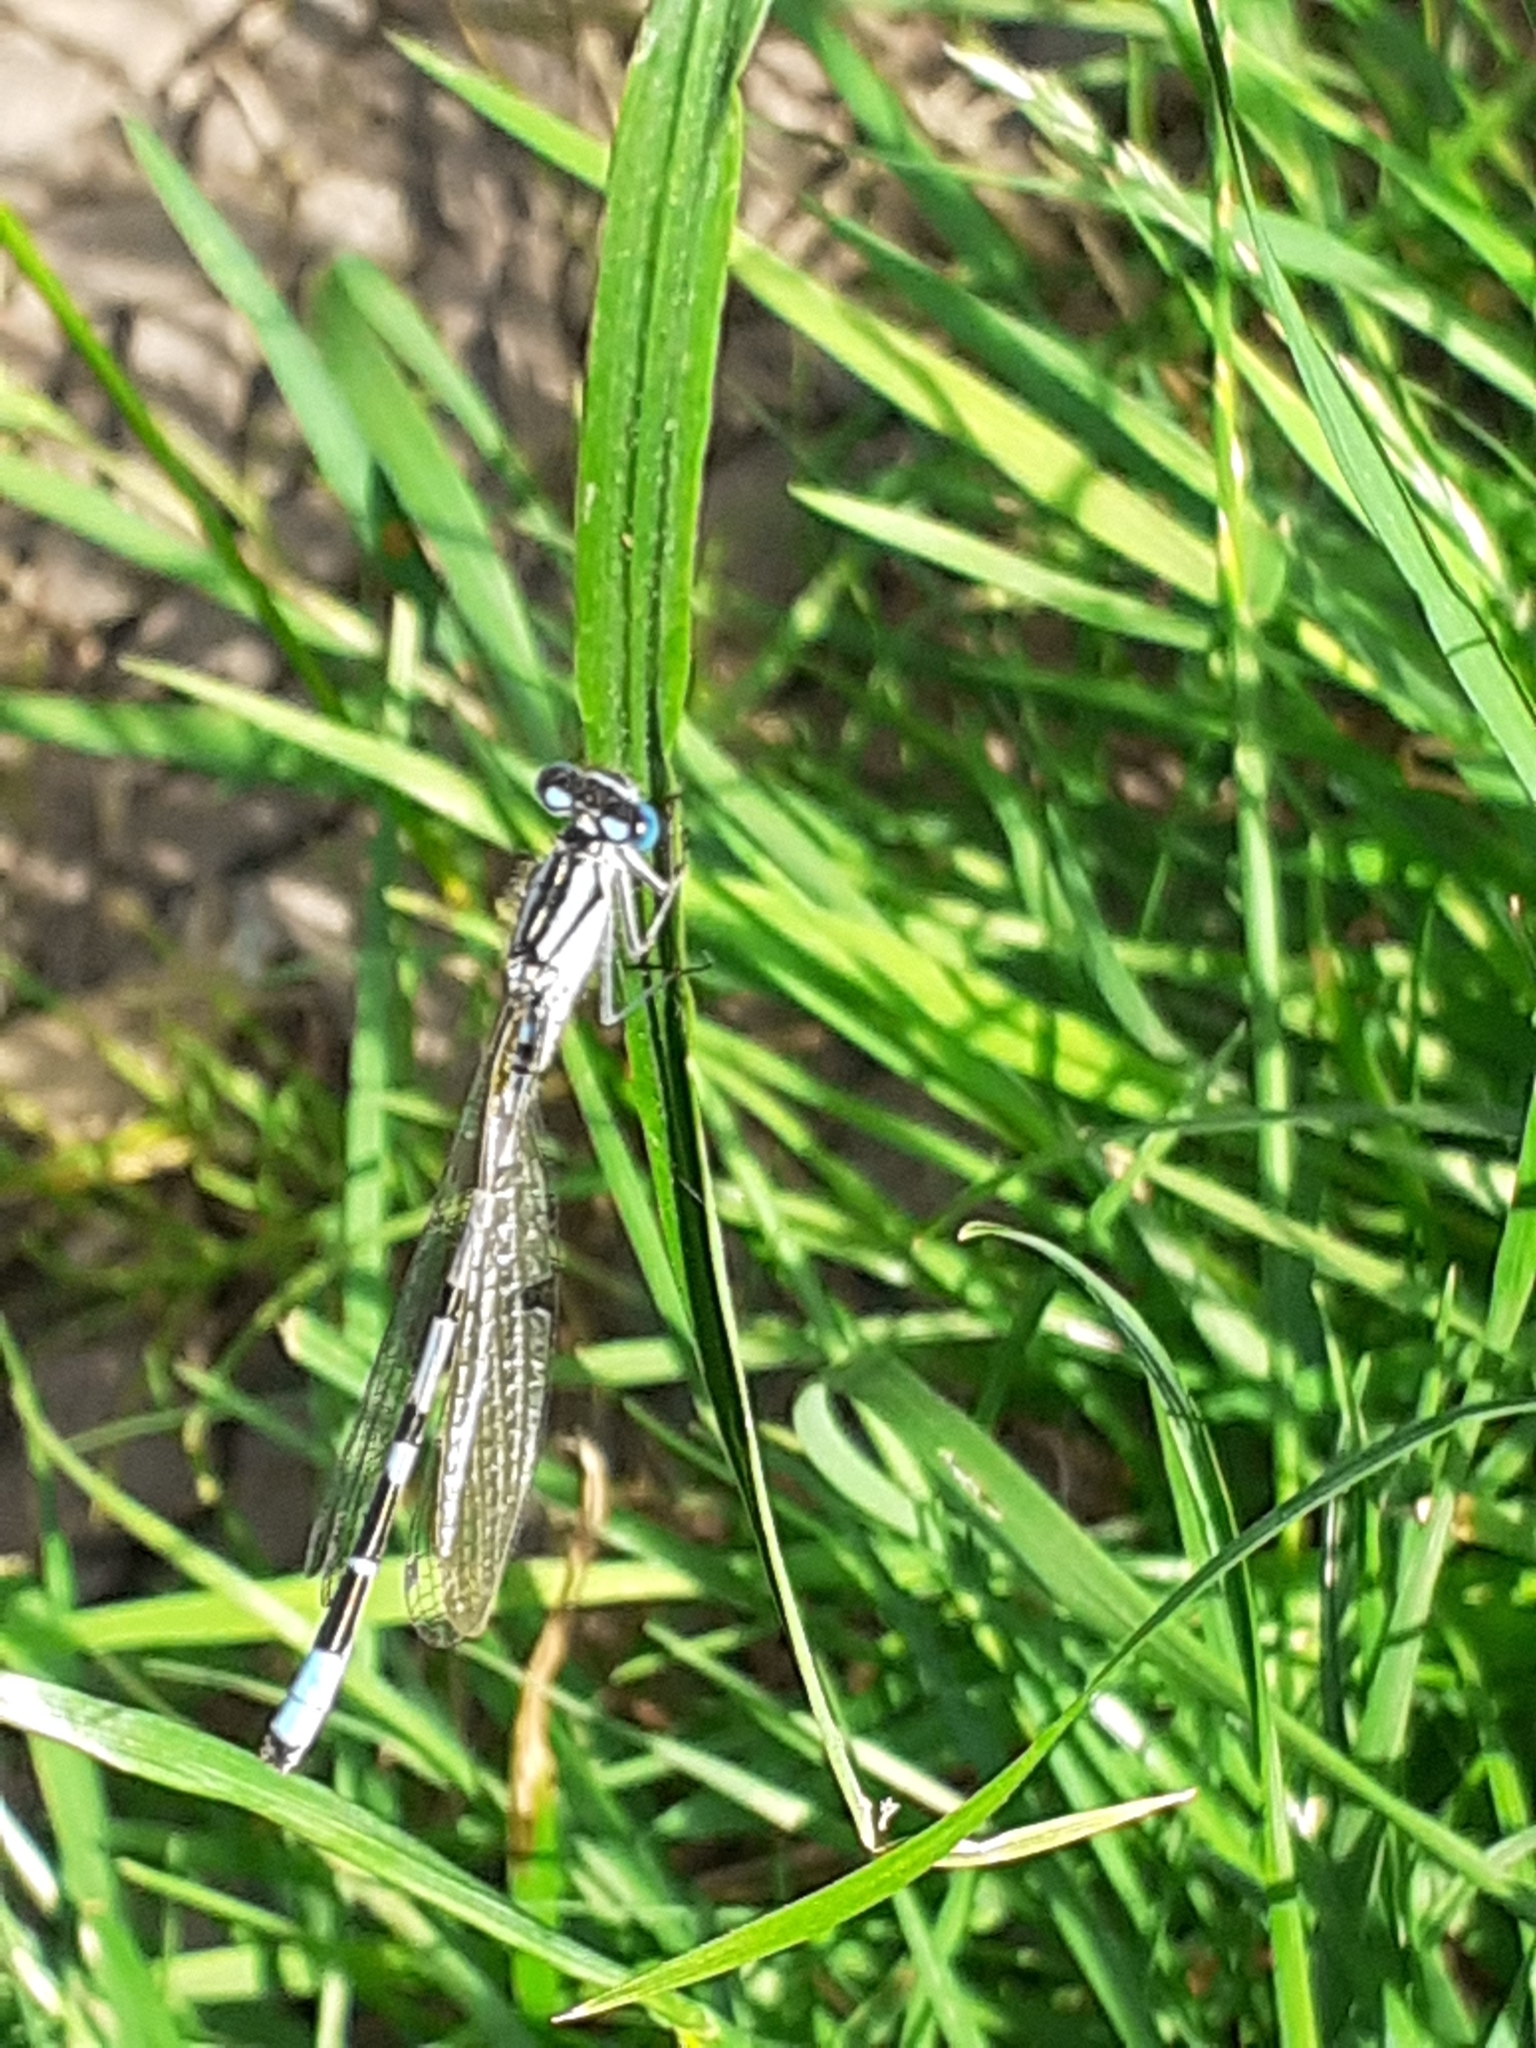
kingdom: Animalia
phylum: Arthropoda
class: Insecta
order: Odonata
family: Coenagrionidae
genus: Enallagma
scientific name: Enallagma cyathigerum
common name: Common blue damselfly
